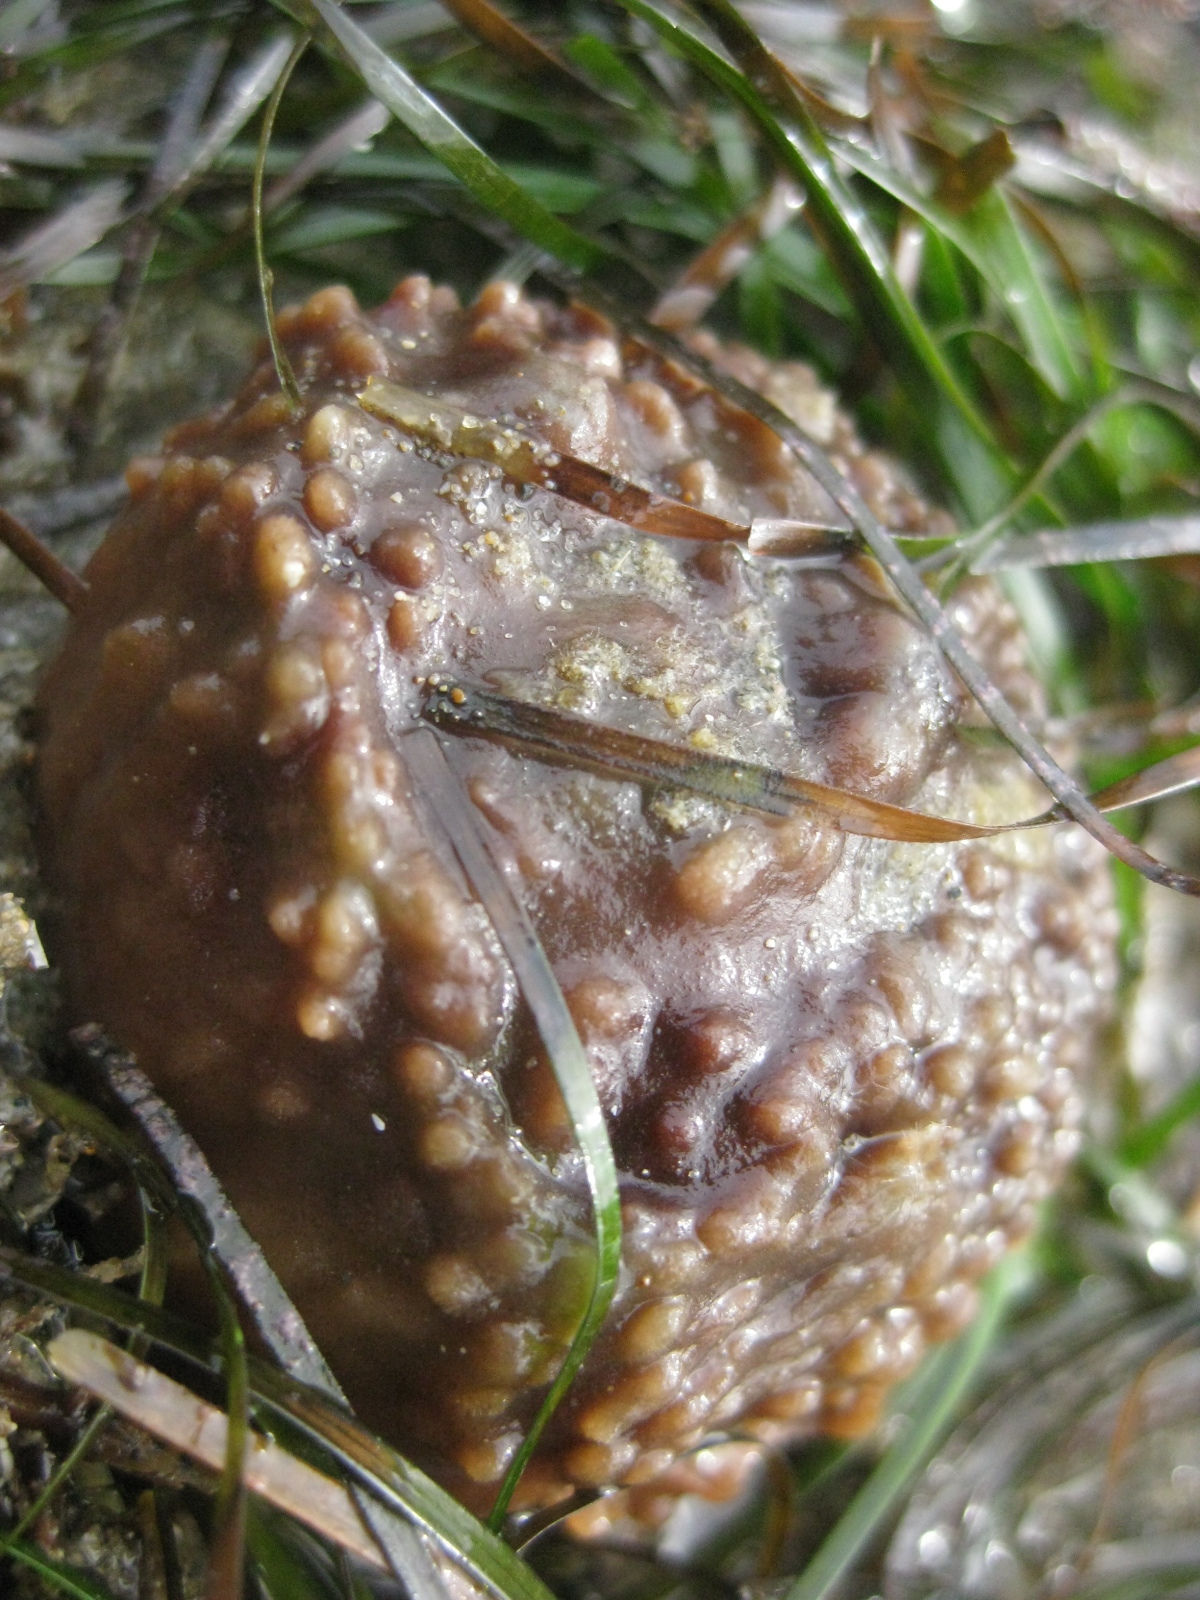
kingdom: Animalia
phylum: Porifera
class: Demospongiae
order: Suberitida
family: Suberitidae
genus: Aaptos
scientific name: Aaptos tenta
